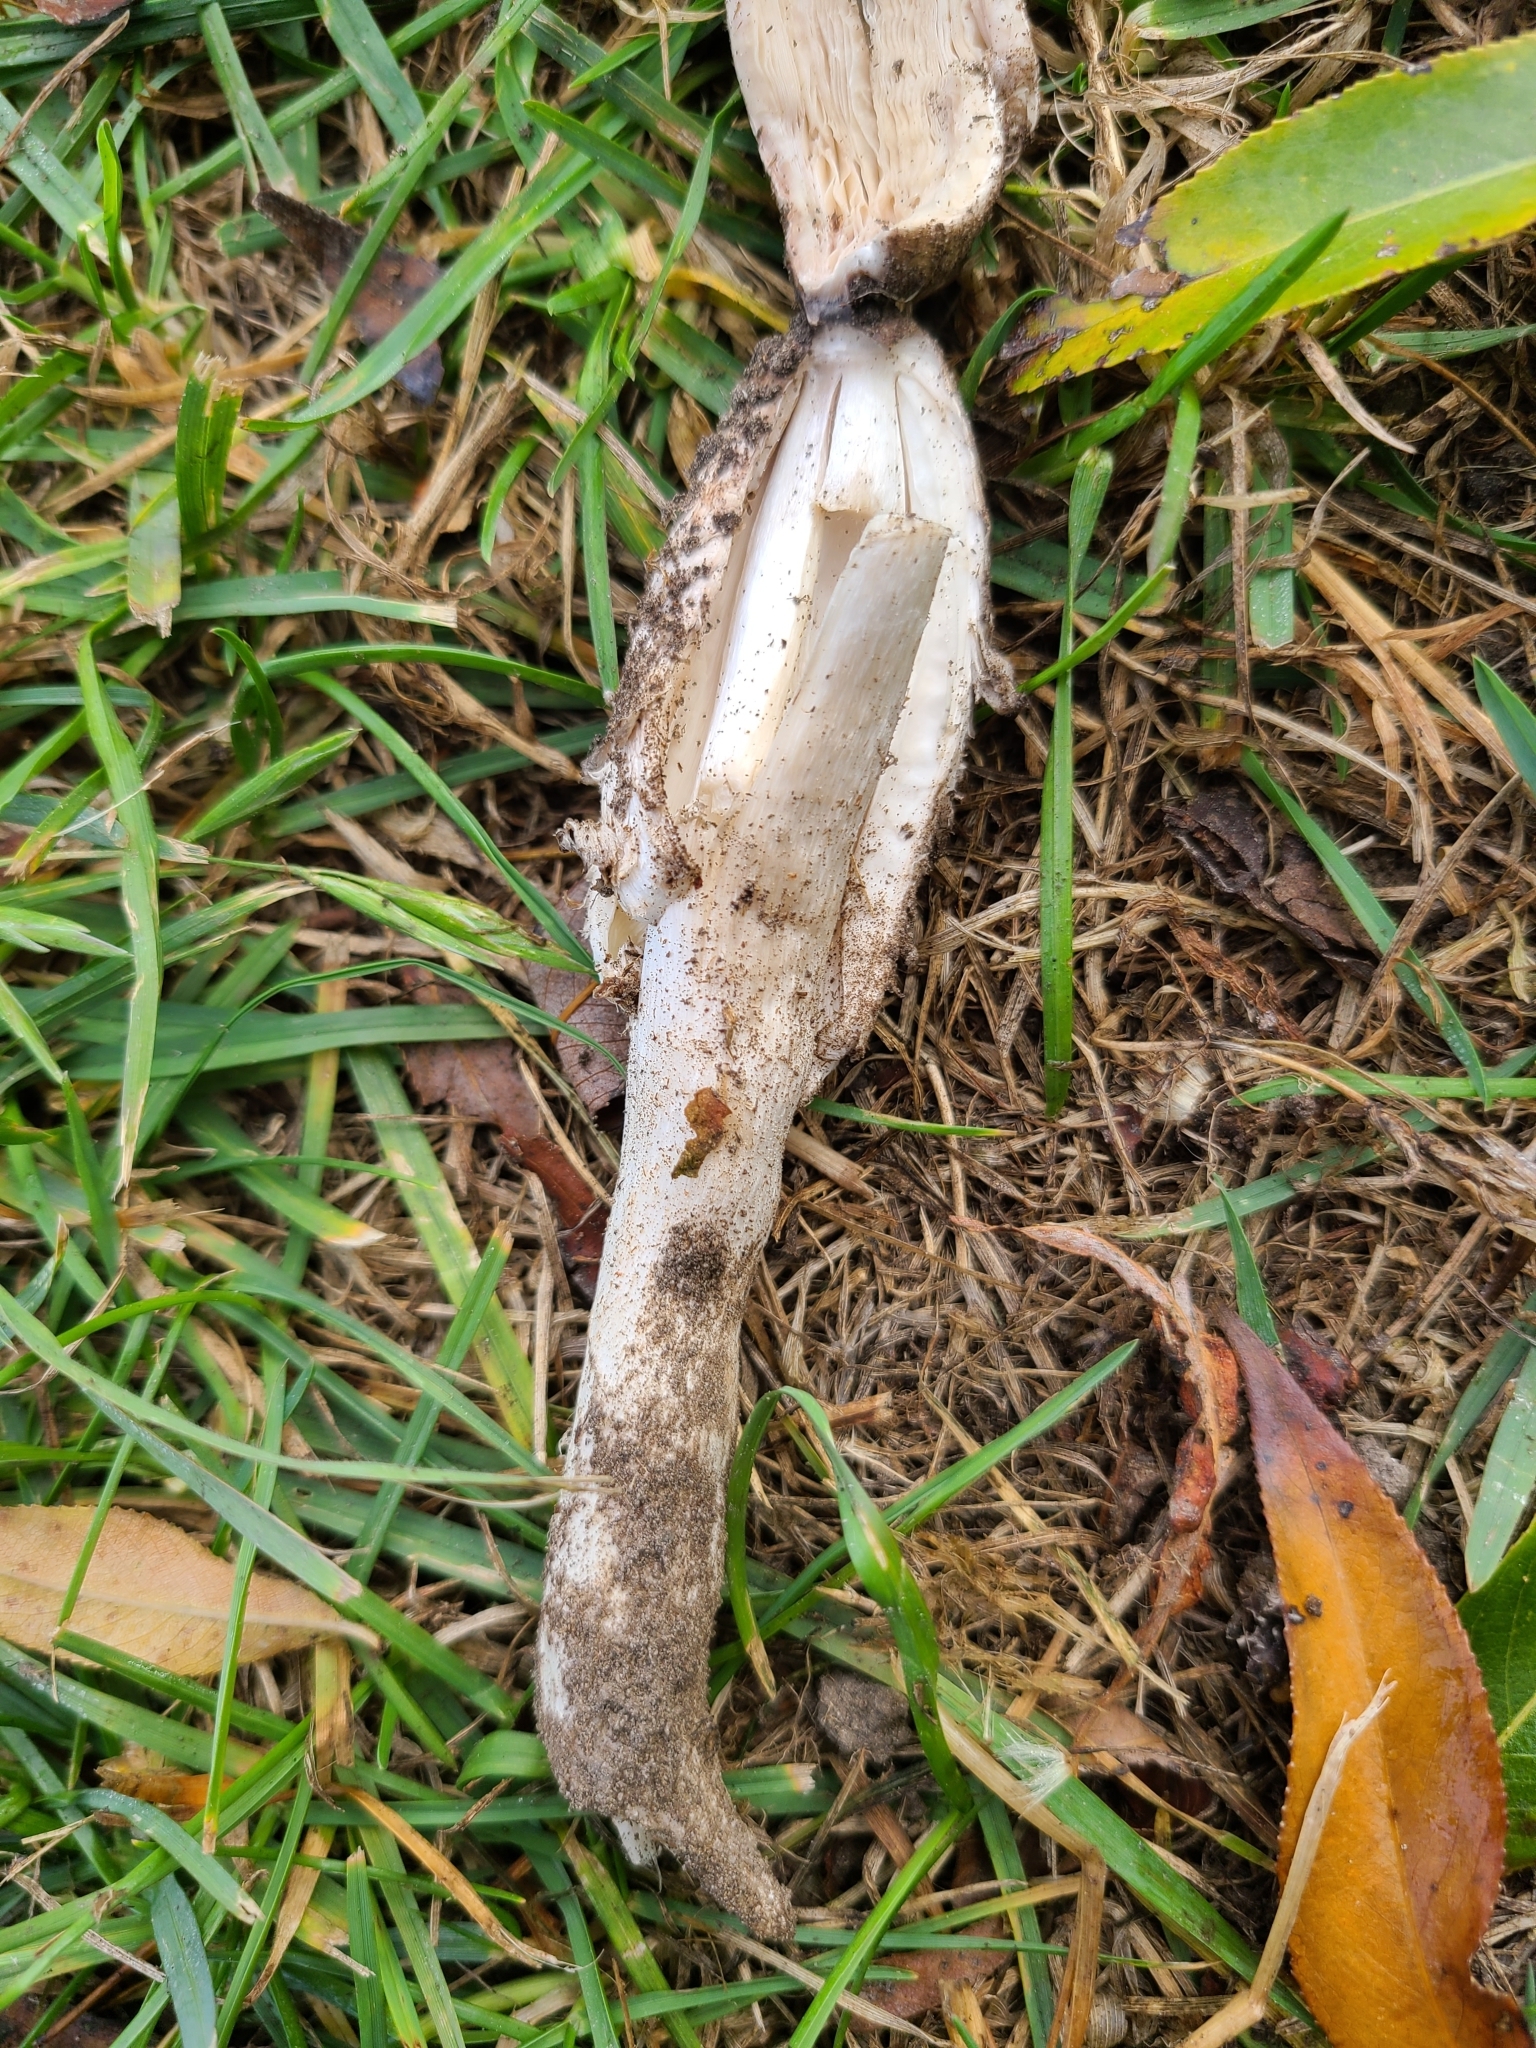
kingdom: Fungi
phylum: Basidiomycota
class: Agaricomycetes
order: Agaricales
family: Agaricaceae
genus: Coprinus
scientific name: Coprinus comatus
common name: Lawyer's wig
